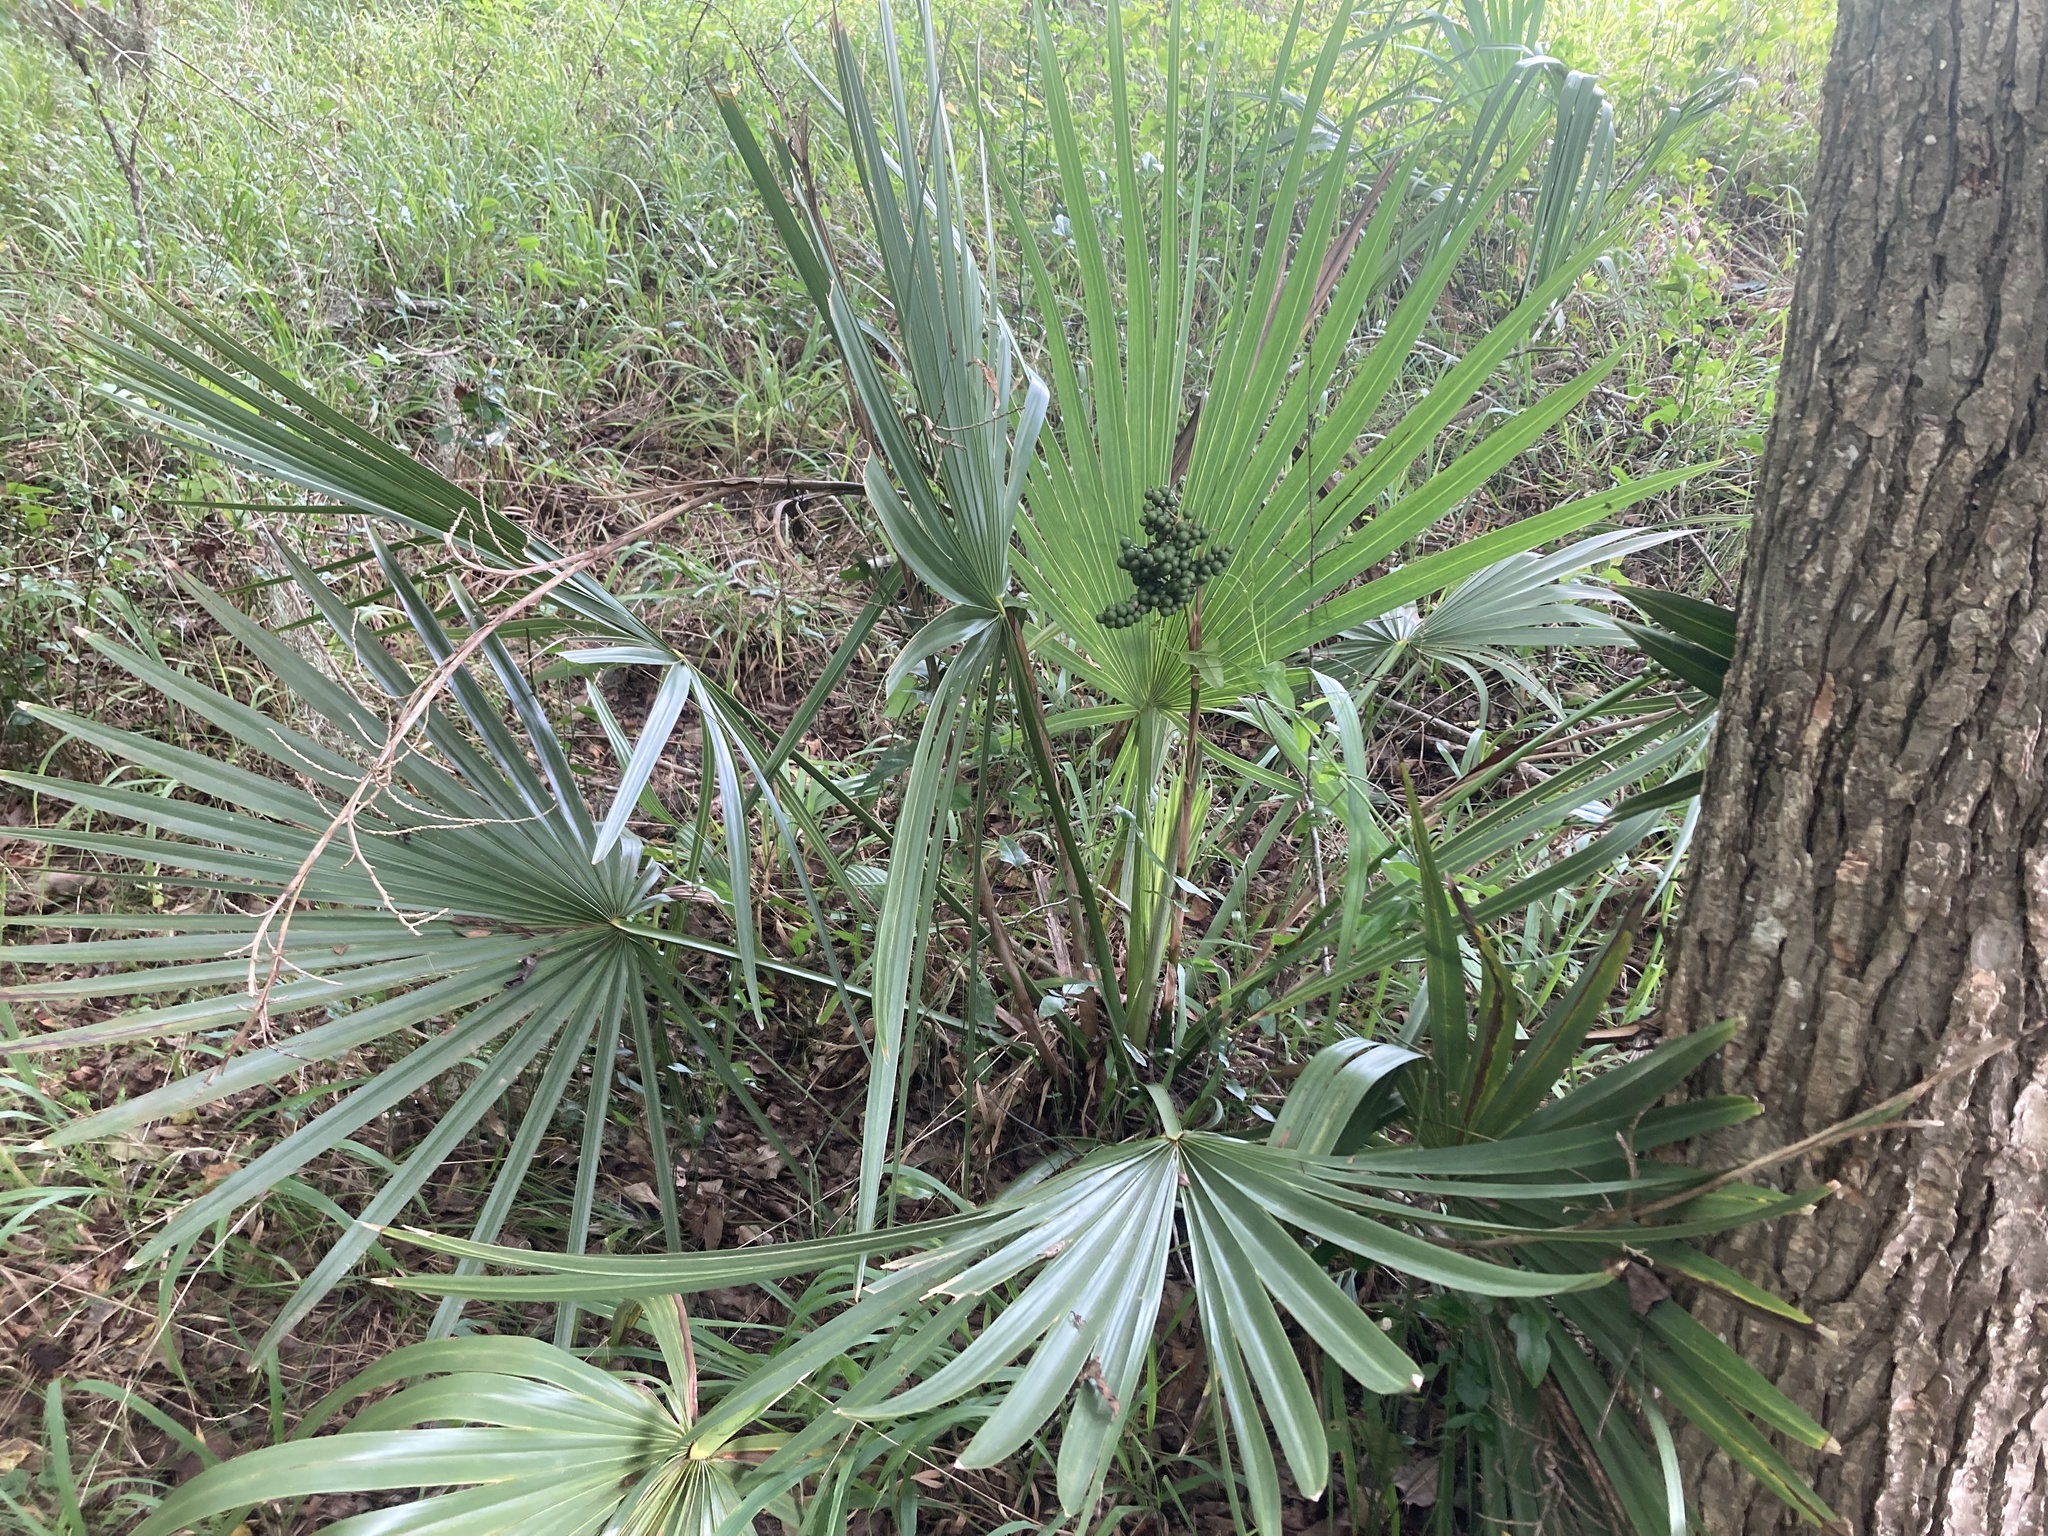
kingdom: Plantae
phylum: Tracheophyta
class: Liliopsida
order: Arecales
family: Arecaceae
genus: Sabal
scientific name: Sabal minor
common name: Dwarf palmetto
